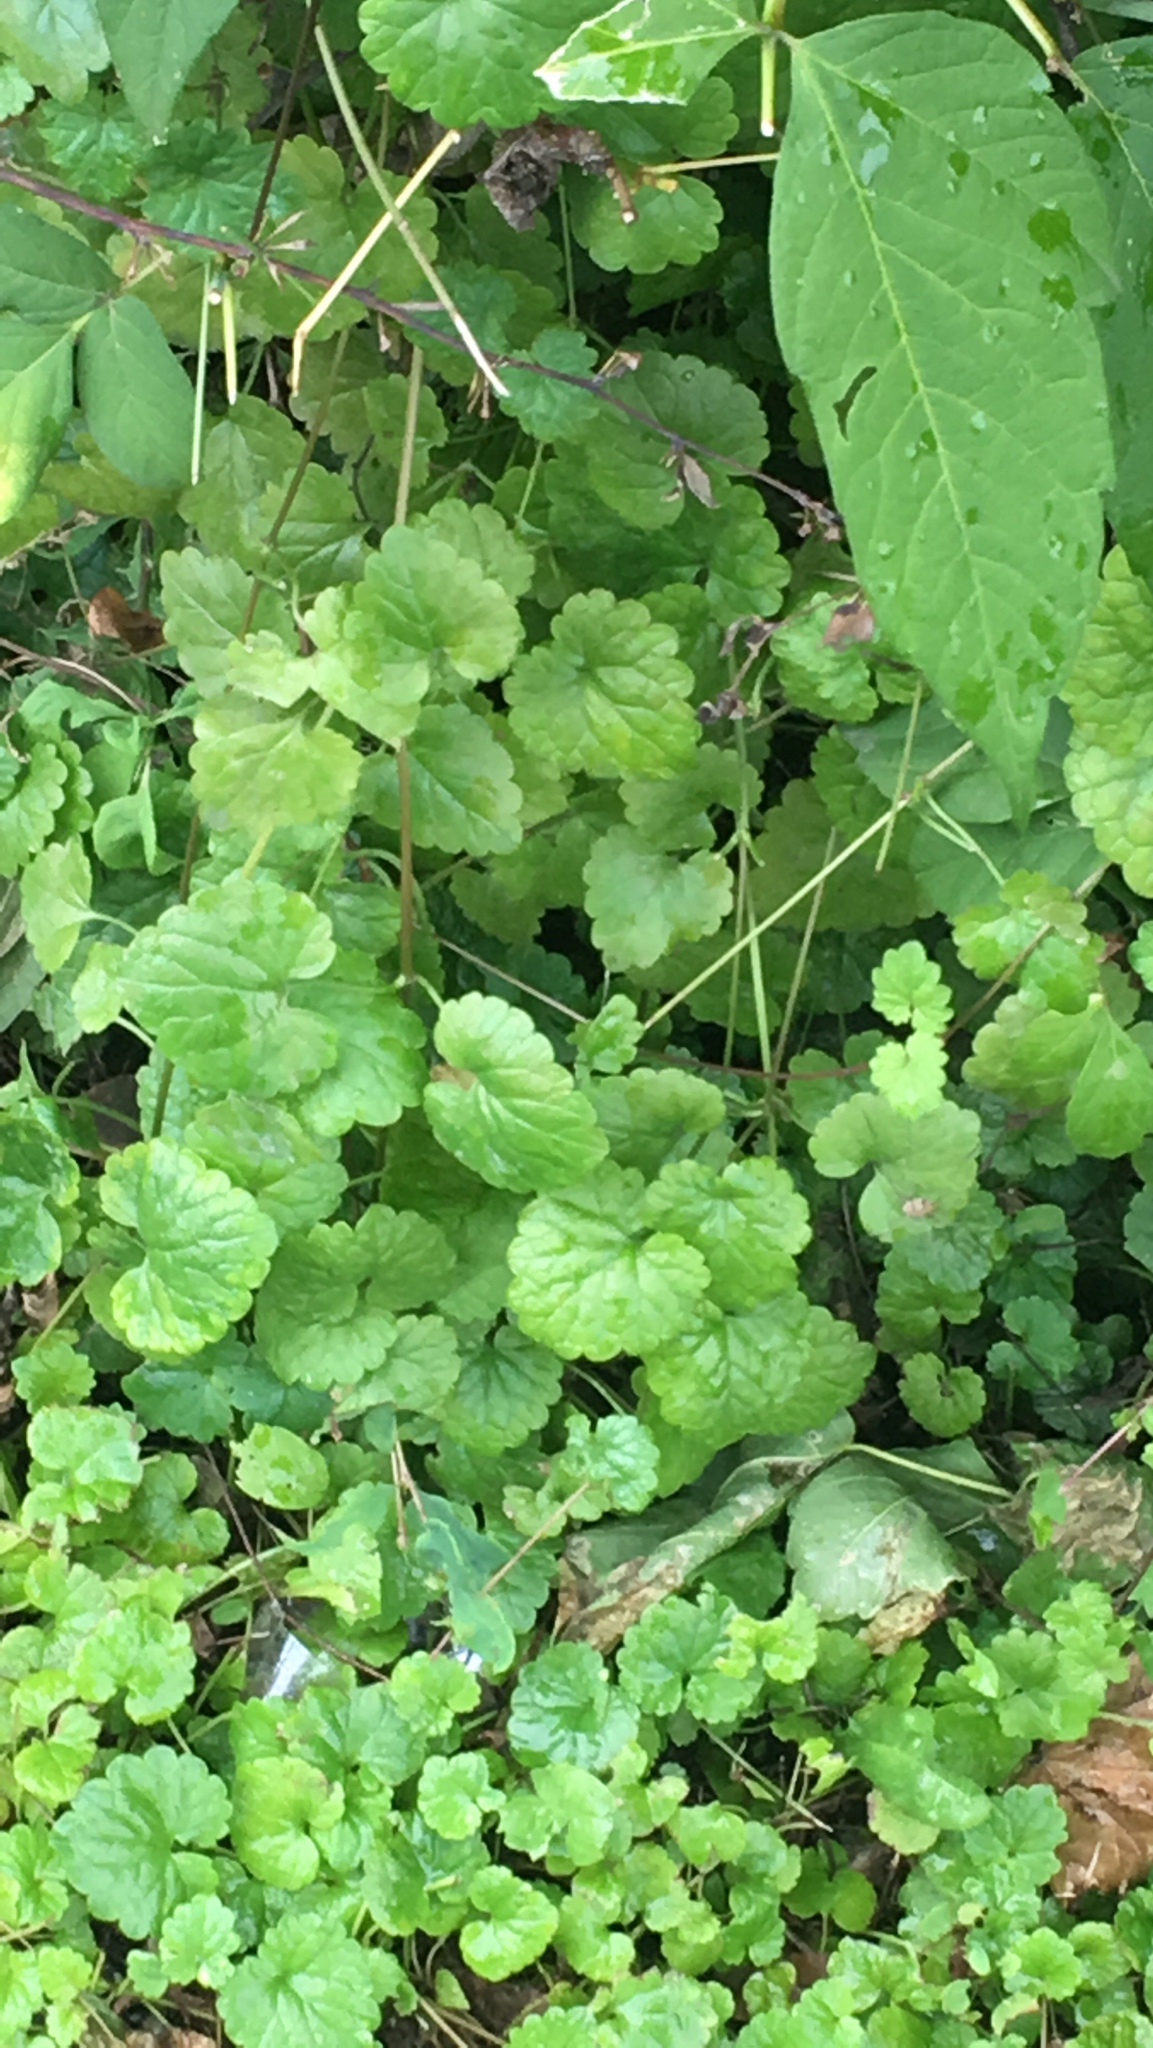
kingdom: Plantae
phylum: Tracheophyta
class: Magnoliopsida
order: Lamiales
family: Lamiaceae
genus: Glechoma
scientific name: Glechoma hederacea
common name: Ground ivy
